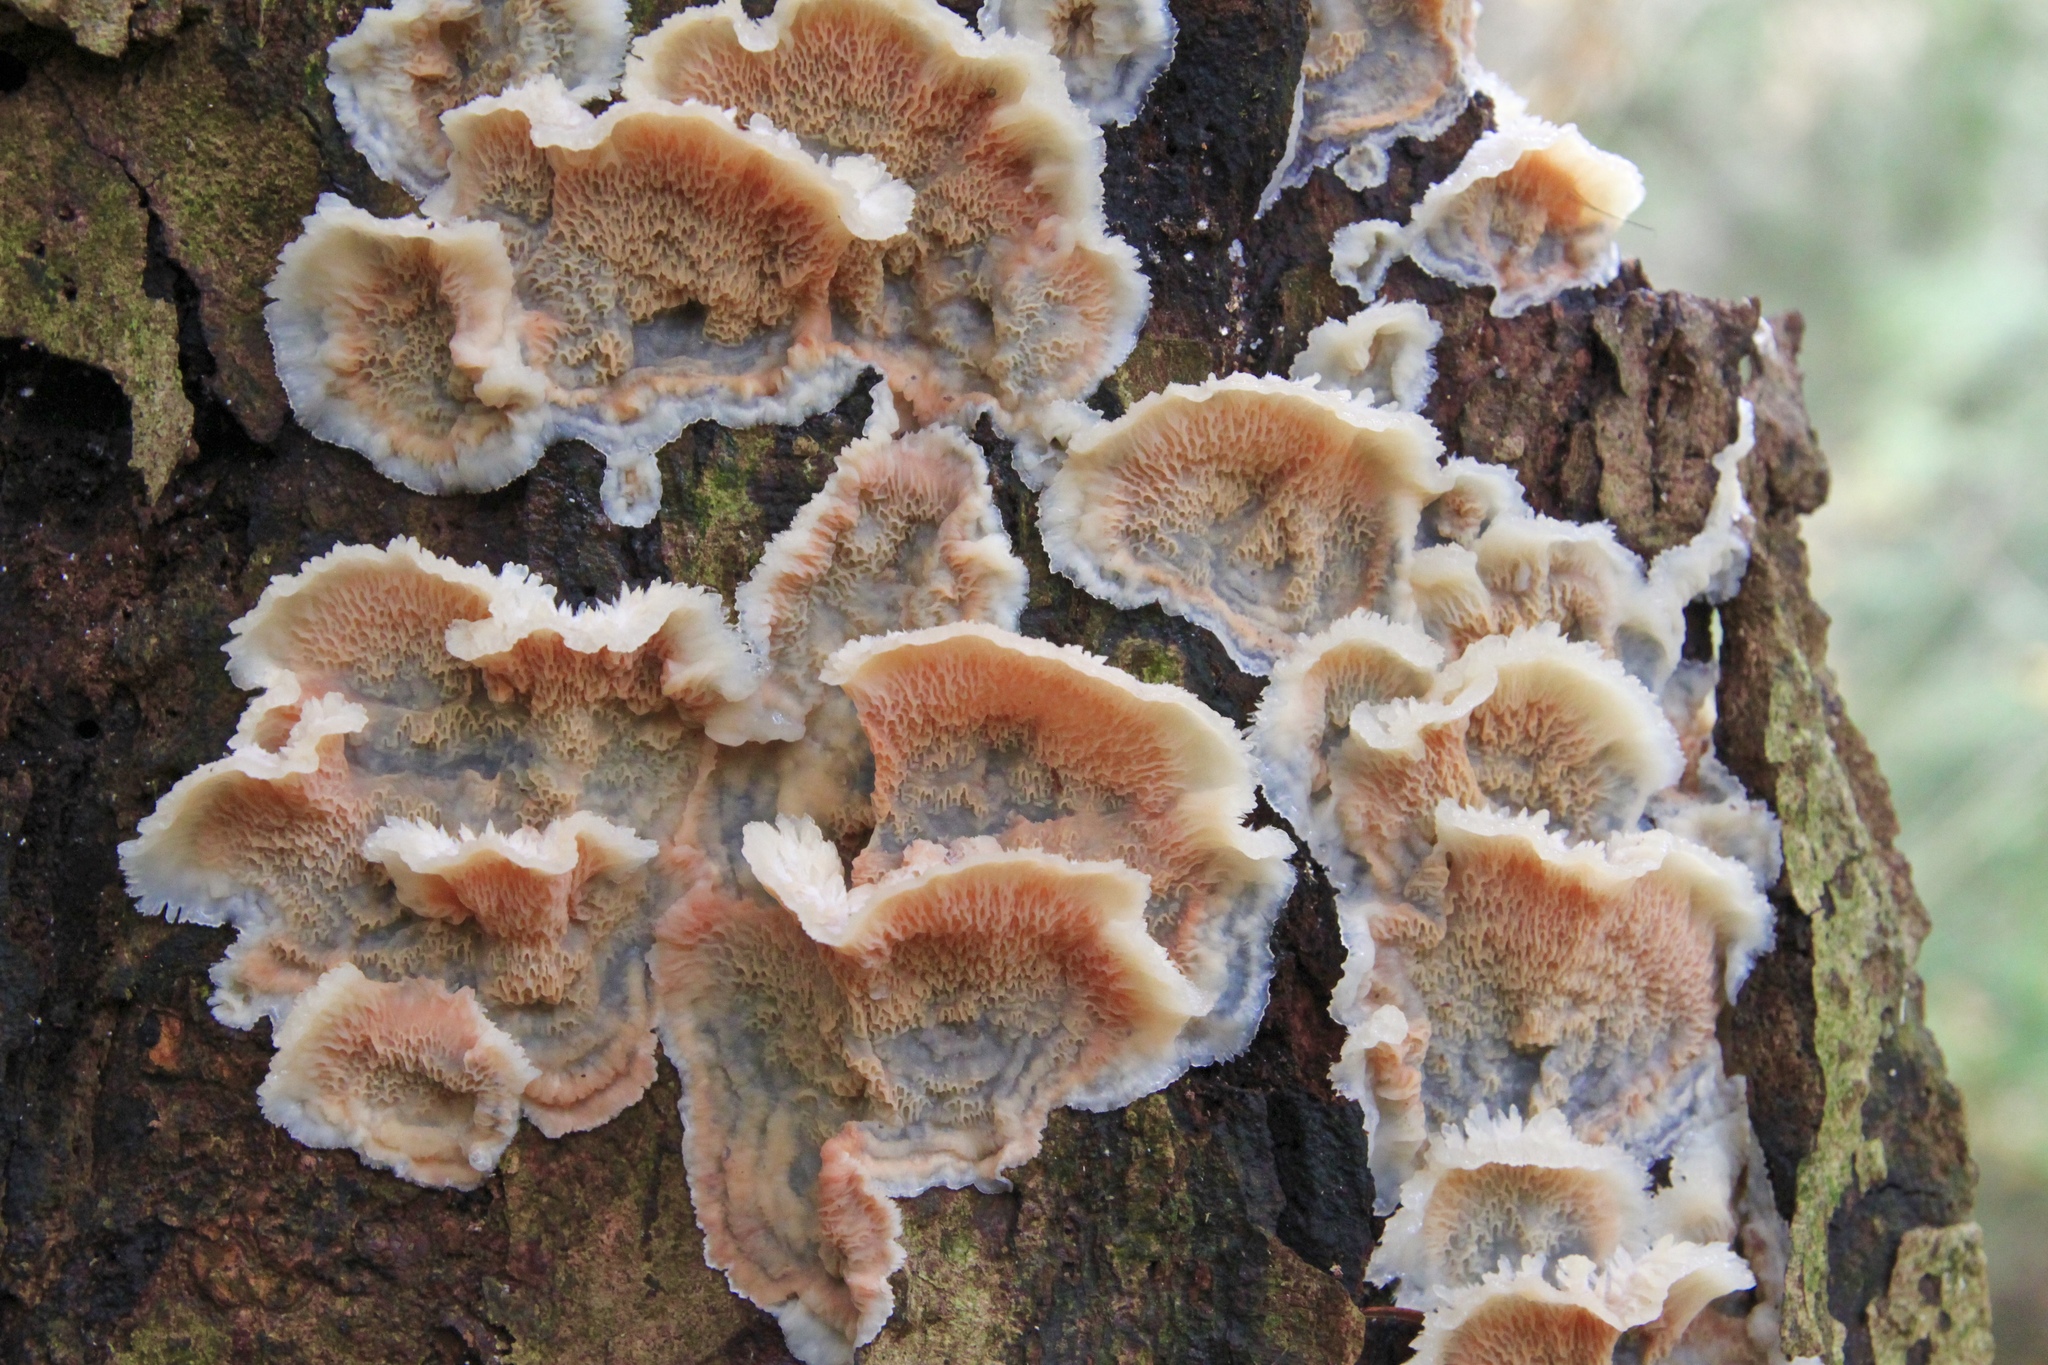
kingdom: Fungi
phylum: Basidiomycota
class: Agaricomycetes
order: Polyporales
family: Meruliaceae
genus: Phlebia
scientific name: Phlebia tremellosa
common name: Jelly rot
